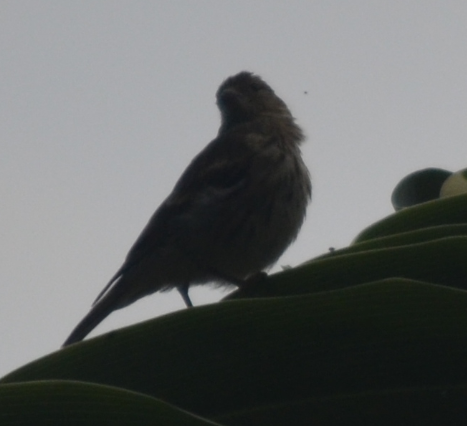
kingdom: Animalia
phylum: Chordata
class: Aves
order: Passeriformes
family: Fringillidae
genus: Serinus
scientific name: Serinus serinus
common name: European serin
